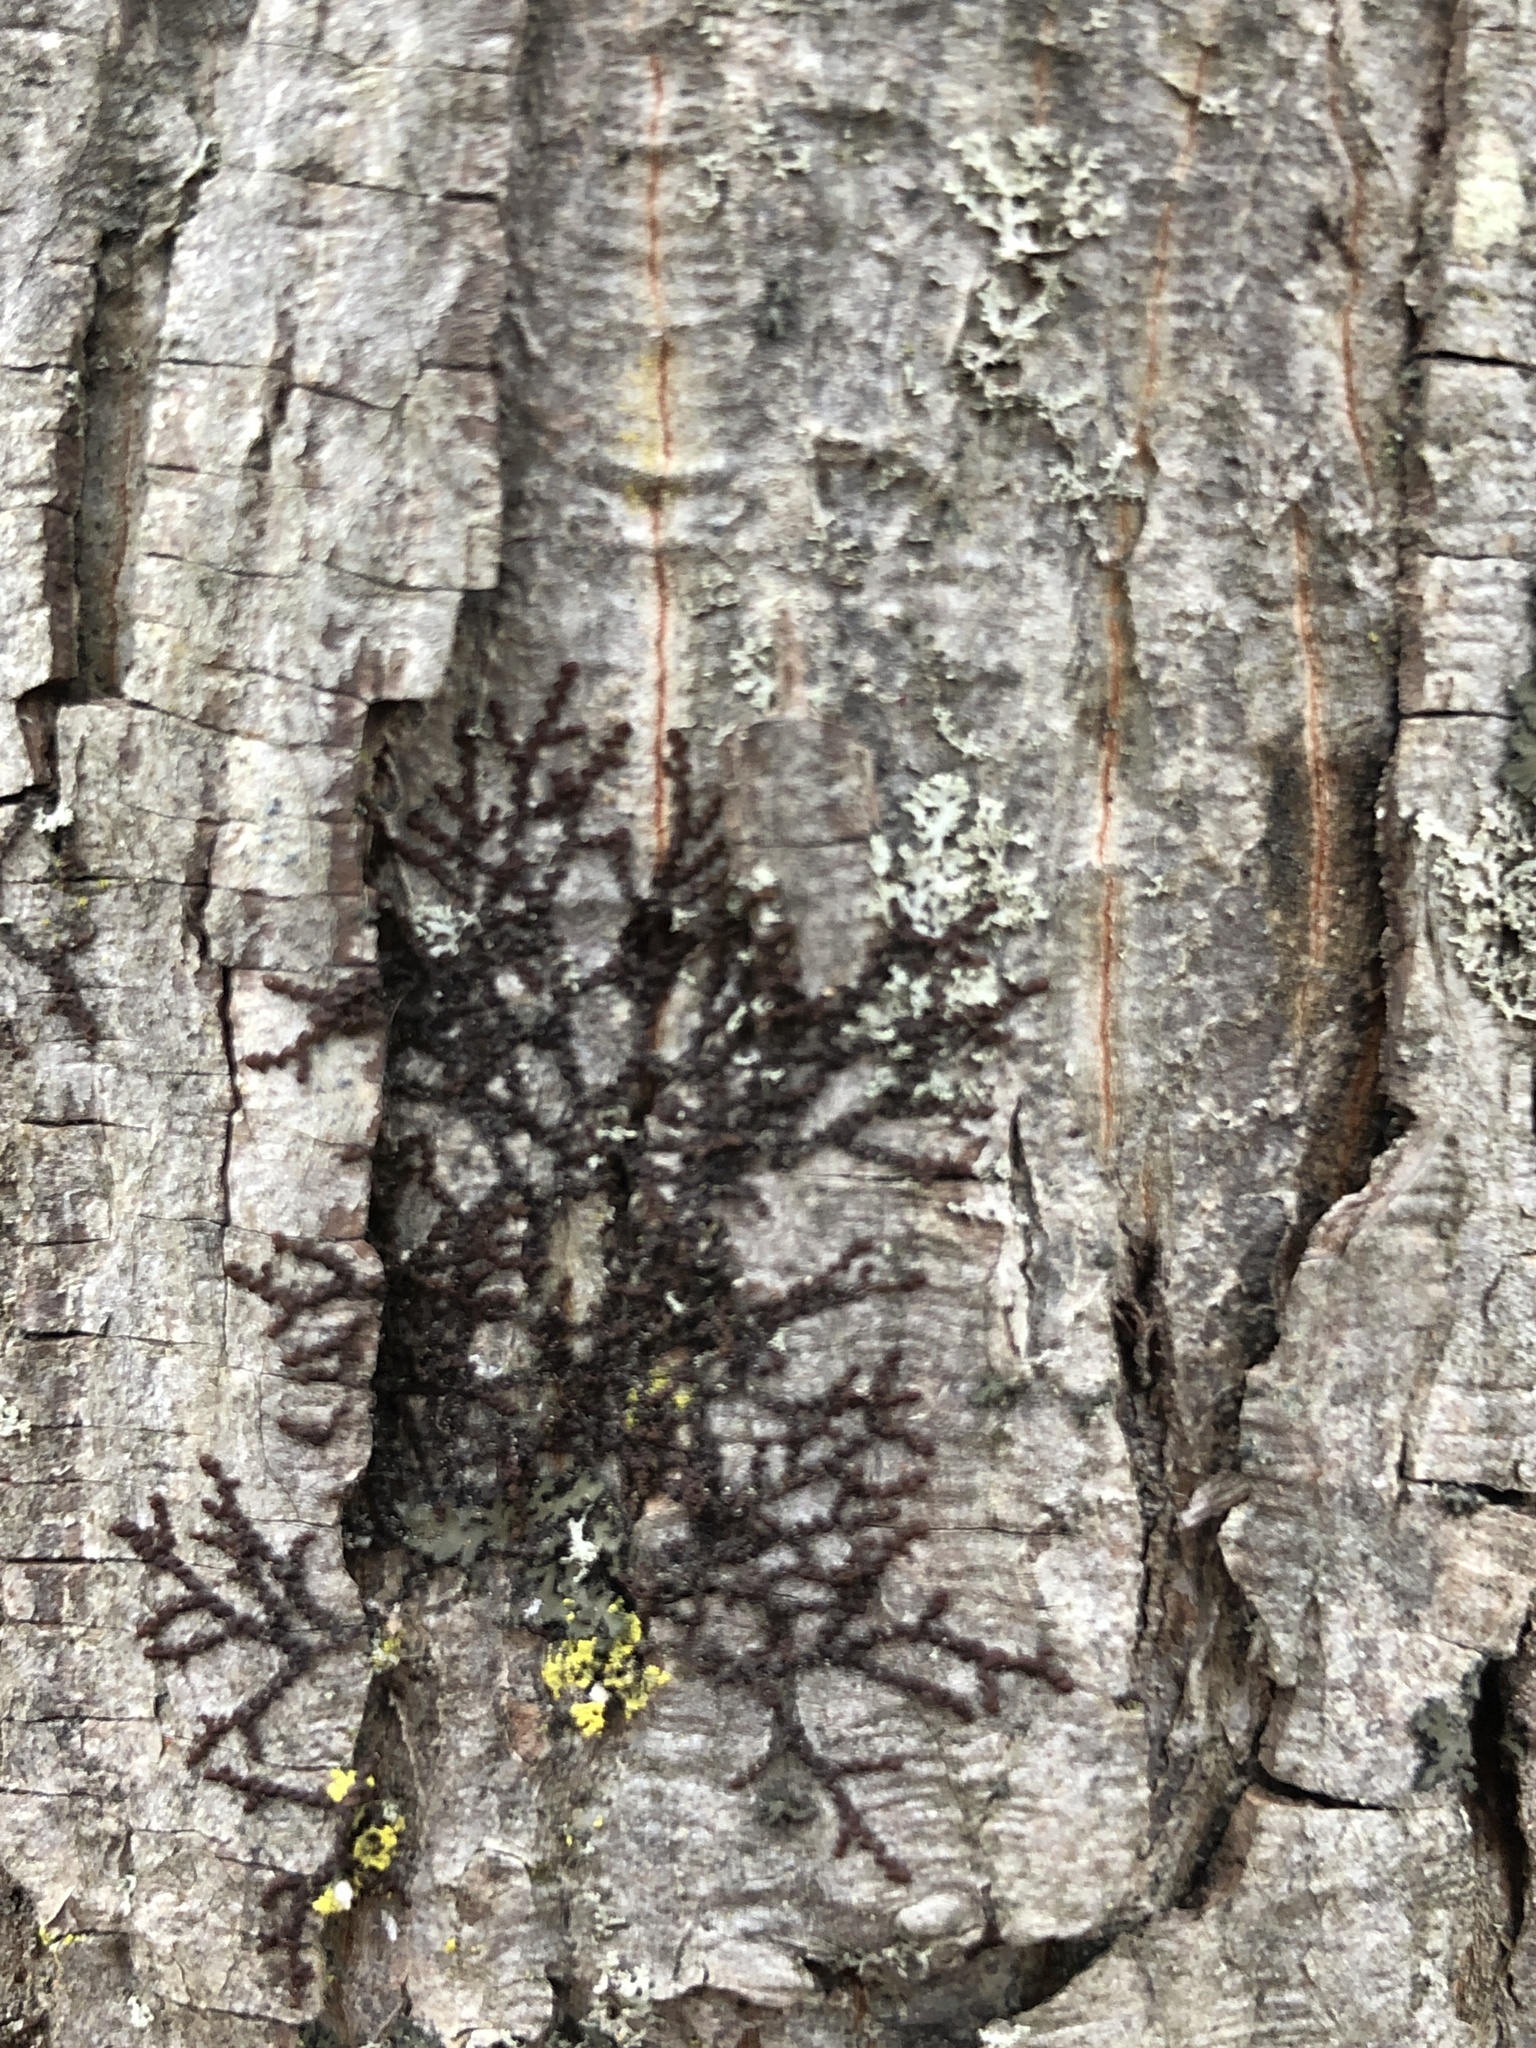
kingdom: Plantae
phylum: Marchantiophyta
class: Jungermanniopsida
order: Porellales
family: Frullaniaceae
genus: Frullania
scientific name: Frullania eboracensis
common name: New york scalewort
